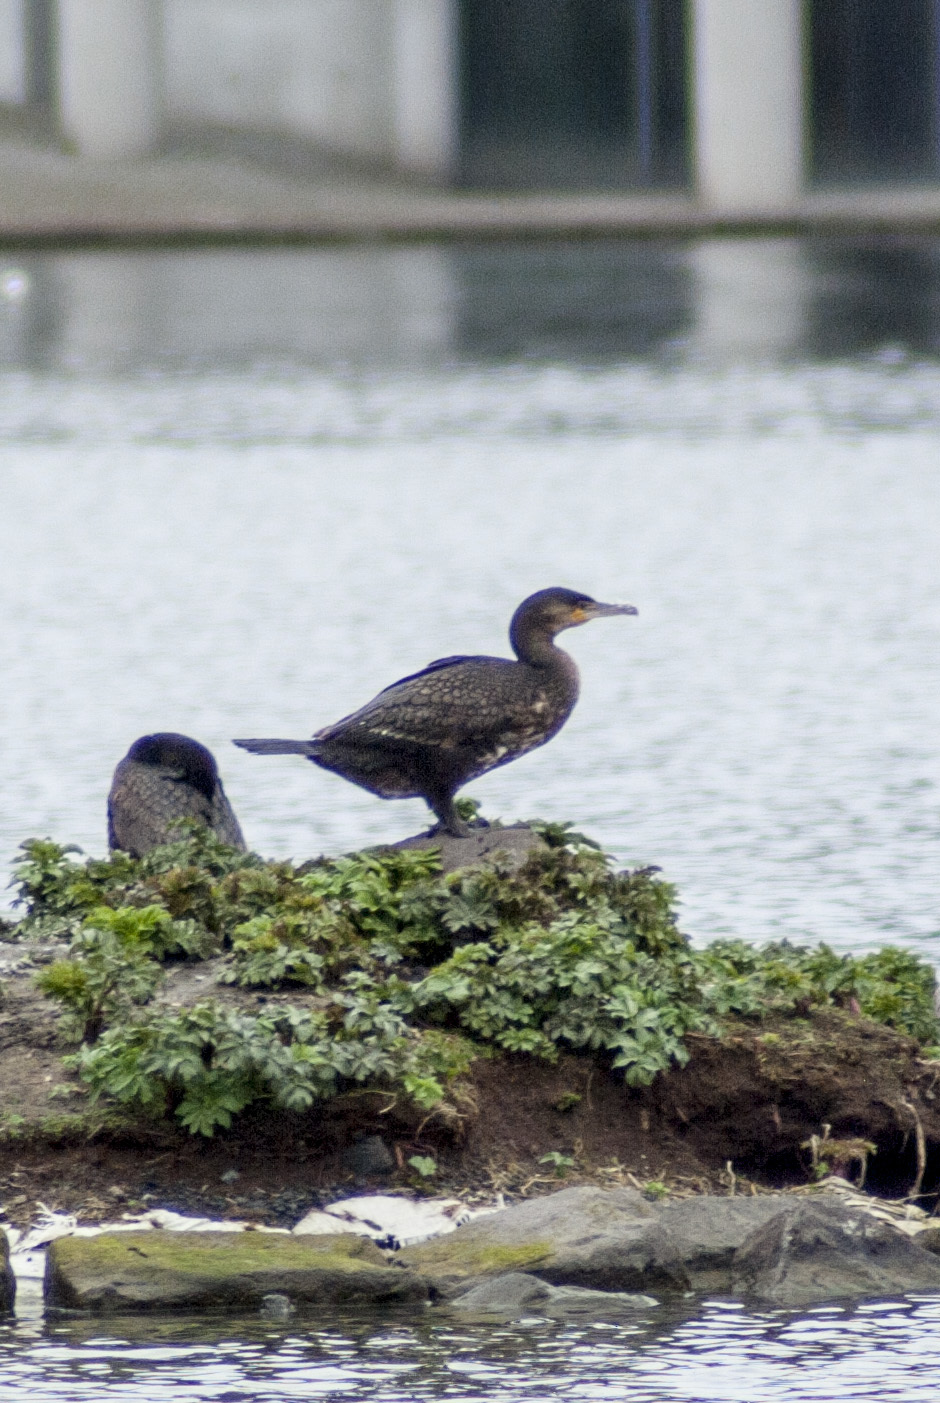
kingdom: Animalia
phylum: Chordata
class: Aves
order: Suliformes
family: Phalacrocoracidae
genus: Phalacrocorax
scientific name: Phalacrocorax carbo
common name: Great cormorant
